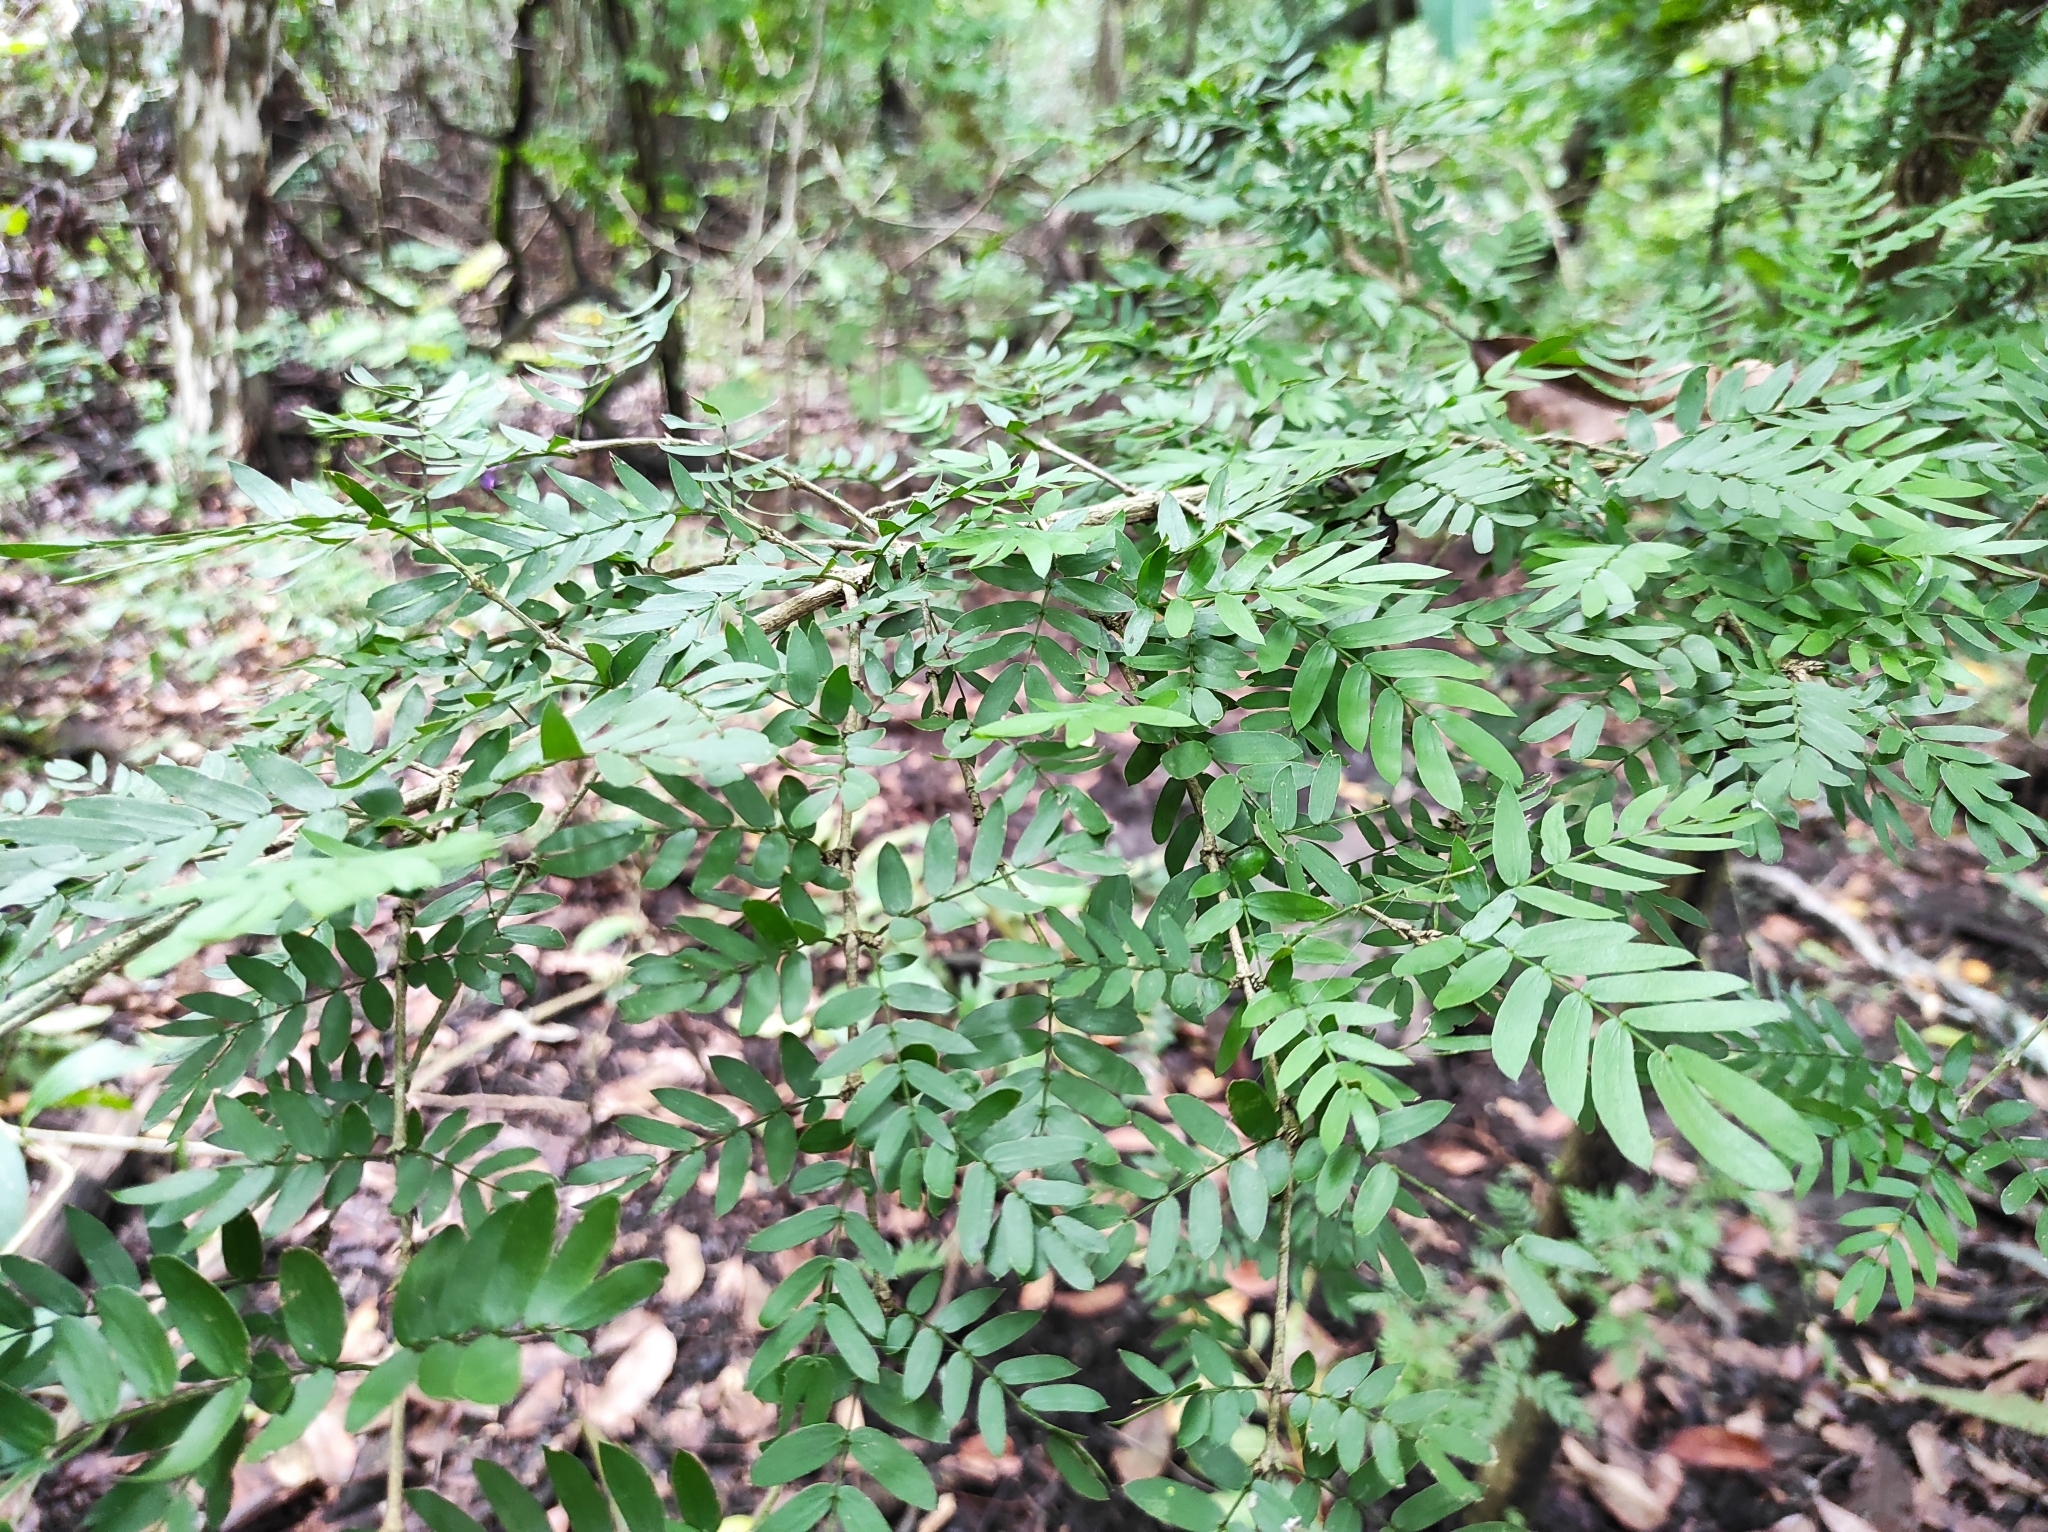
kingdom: Plantae
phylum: Tracheophyta
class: Magnoliopsida
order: Zygophyllales
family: Zygophyllaceae
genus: Guaiacum
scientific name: Guaiacum sanctum
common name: Holywood
